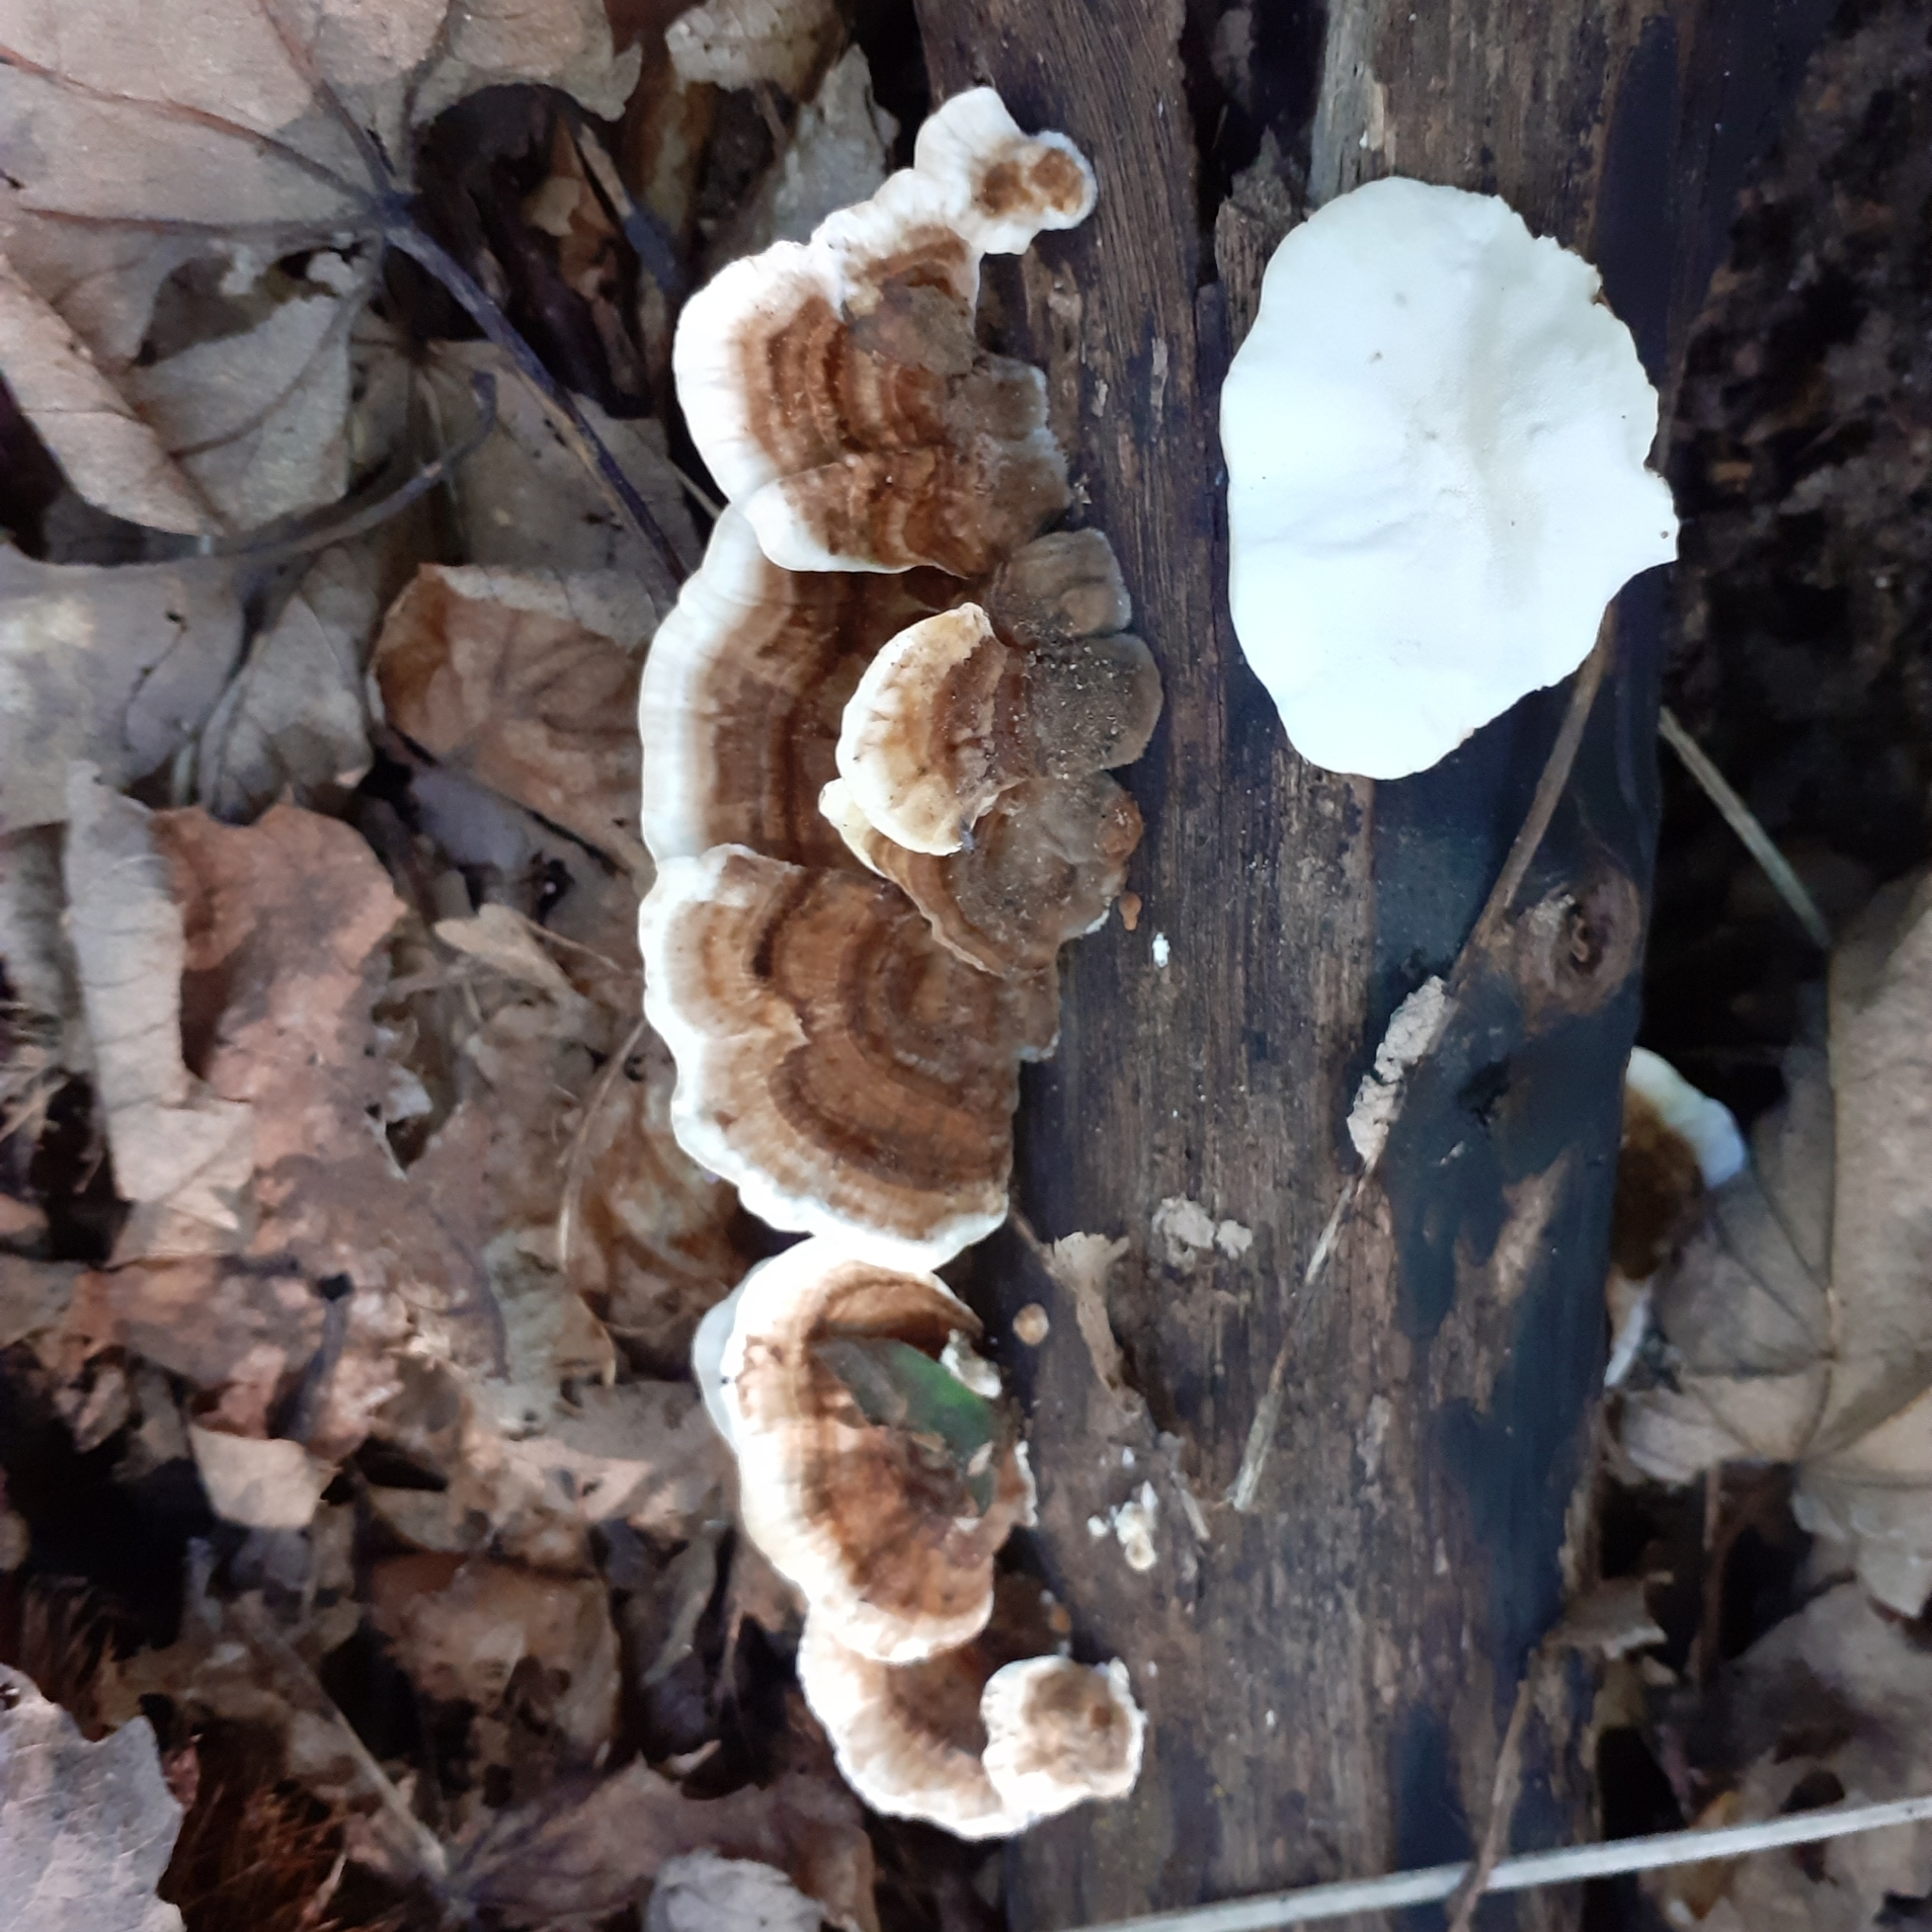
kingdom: Fungi
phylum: Basidiomycota
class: Agaricomycetes
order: Polyporales
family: Polyporaceae
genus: Trametes
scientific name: Trametes versicolor
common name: Turkeytail
